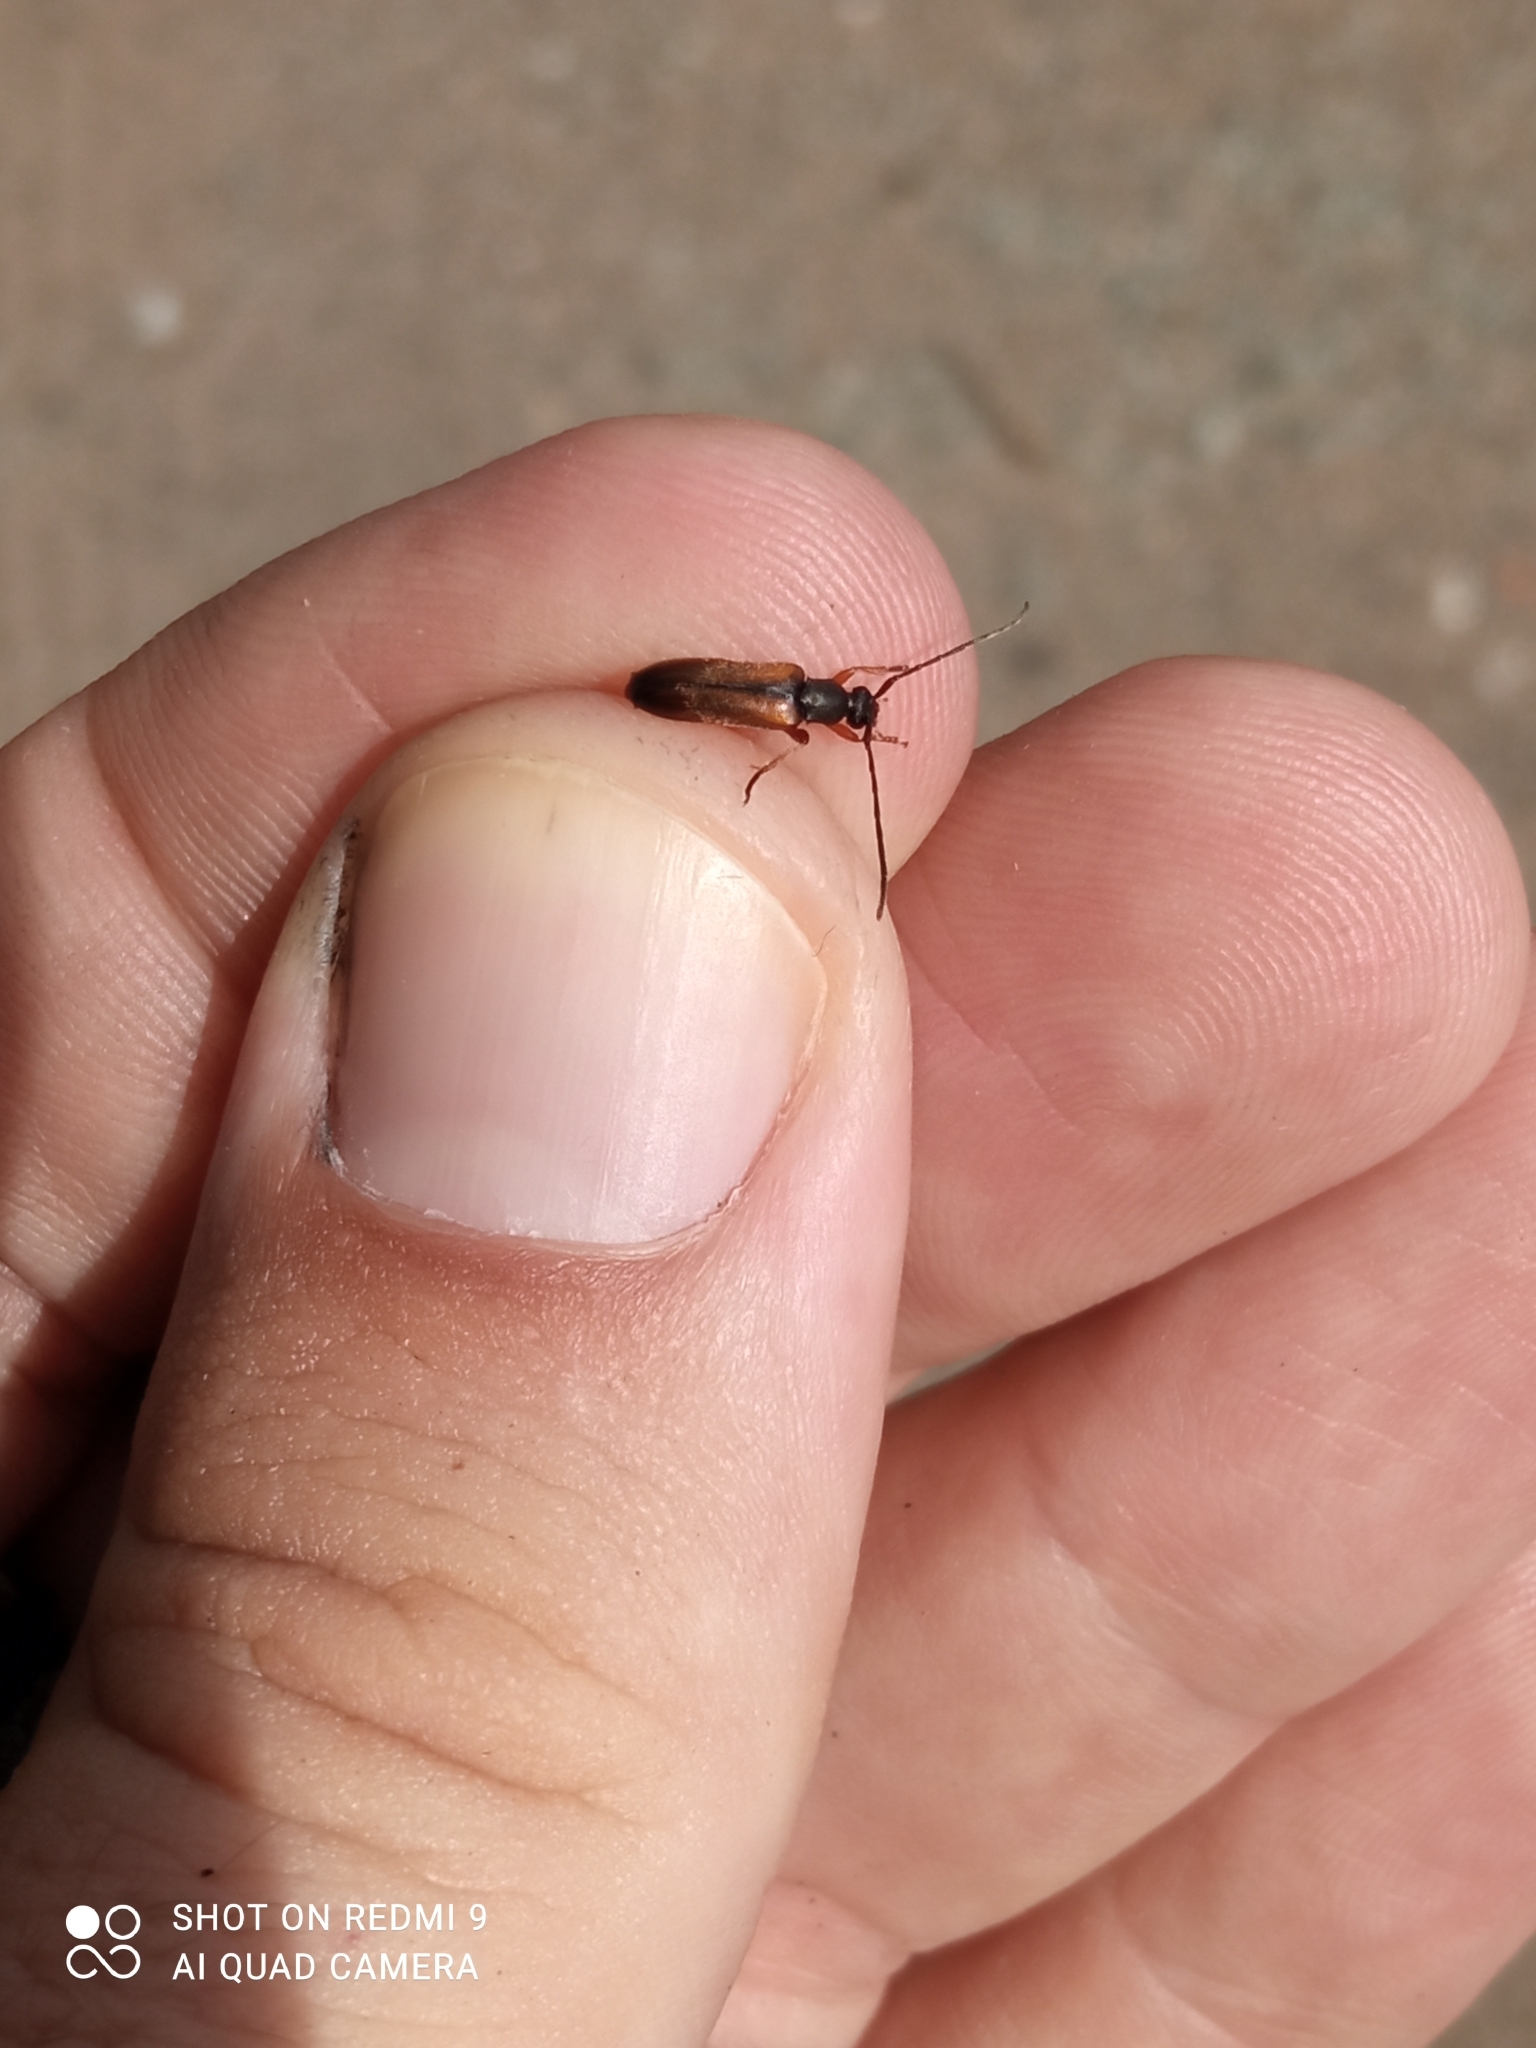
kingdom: Animalia
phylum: Arthropoda
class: Insecta
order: Coleoptera
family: Cerambycidae
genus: Alosterna
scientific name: Alosterna tabacicolor
